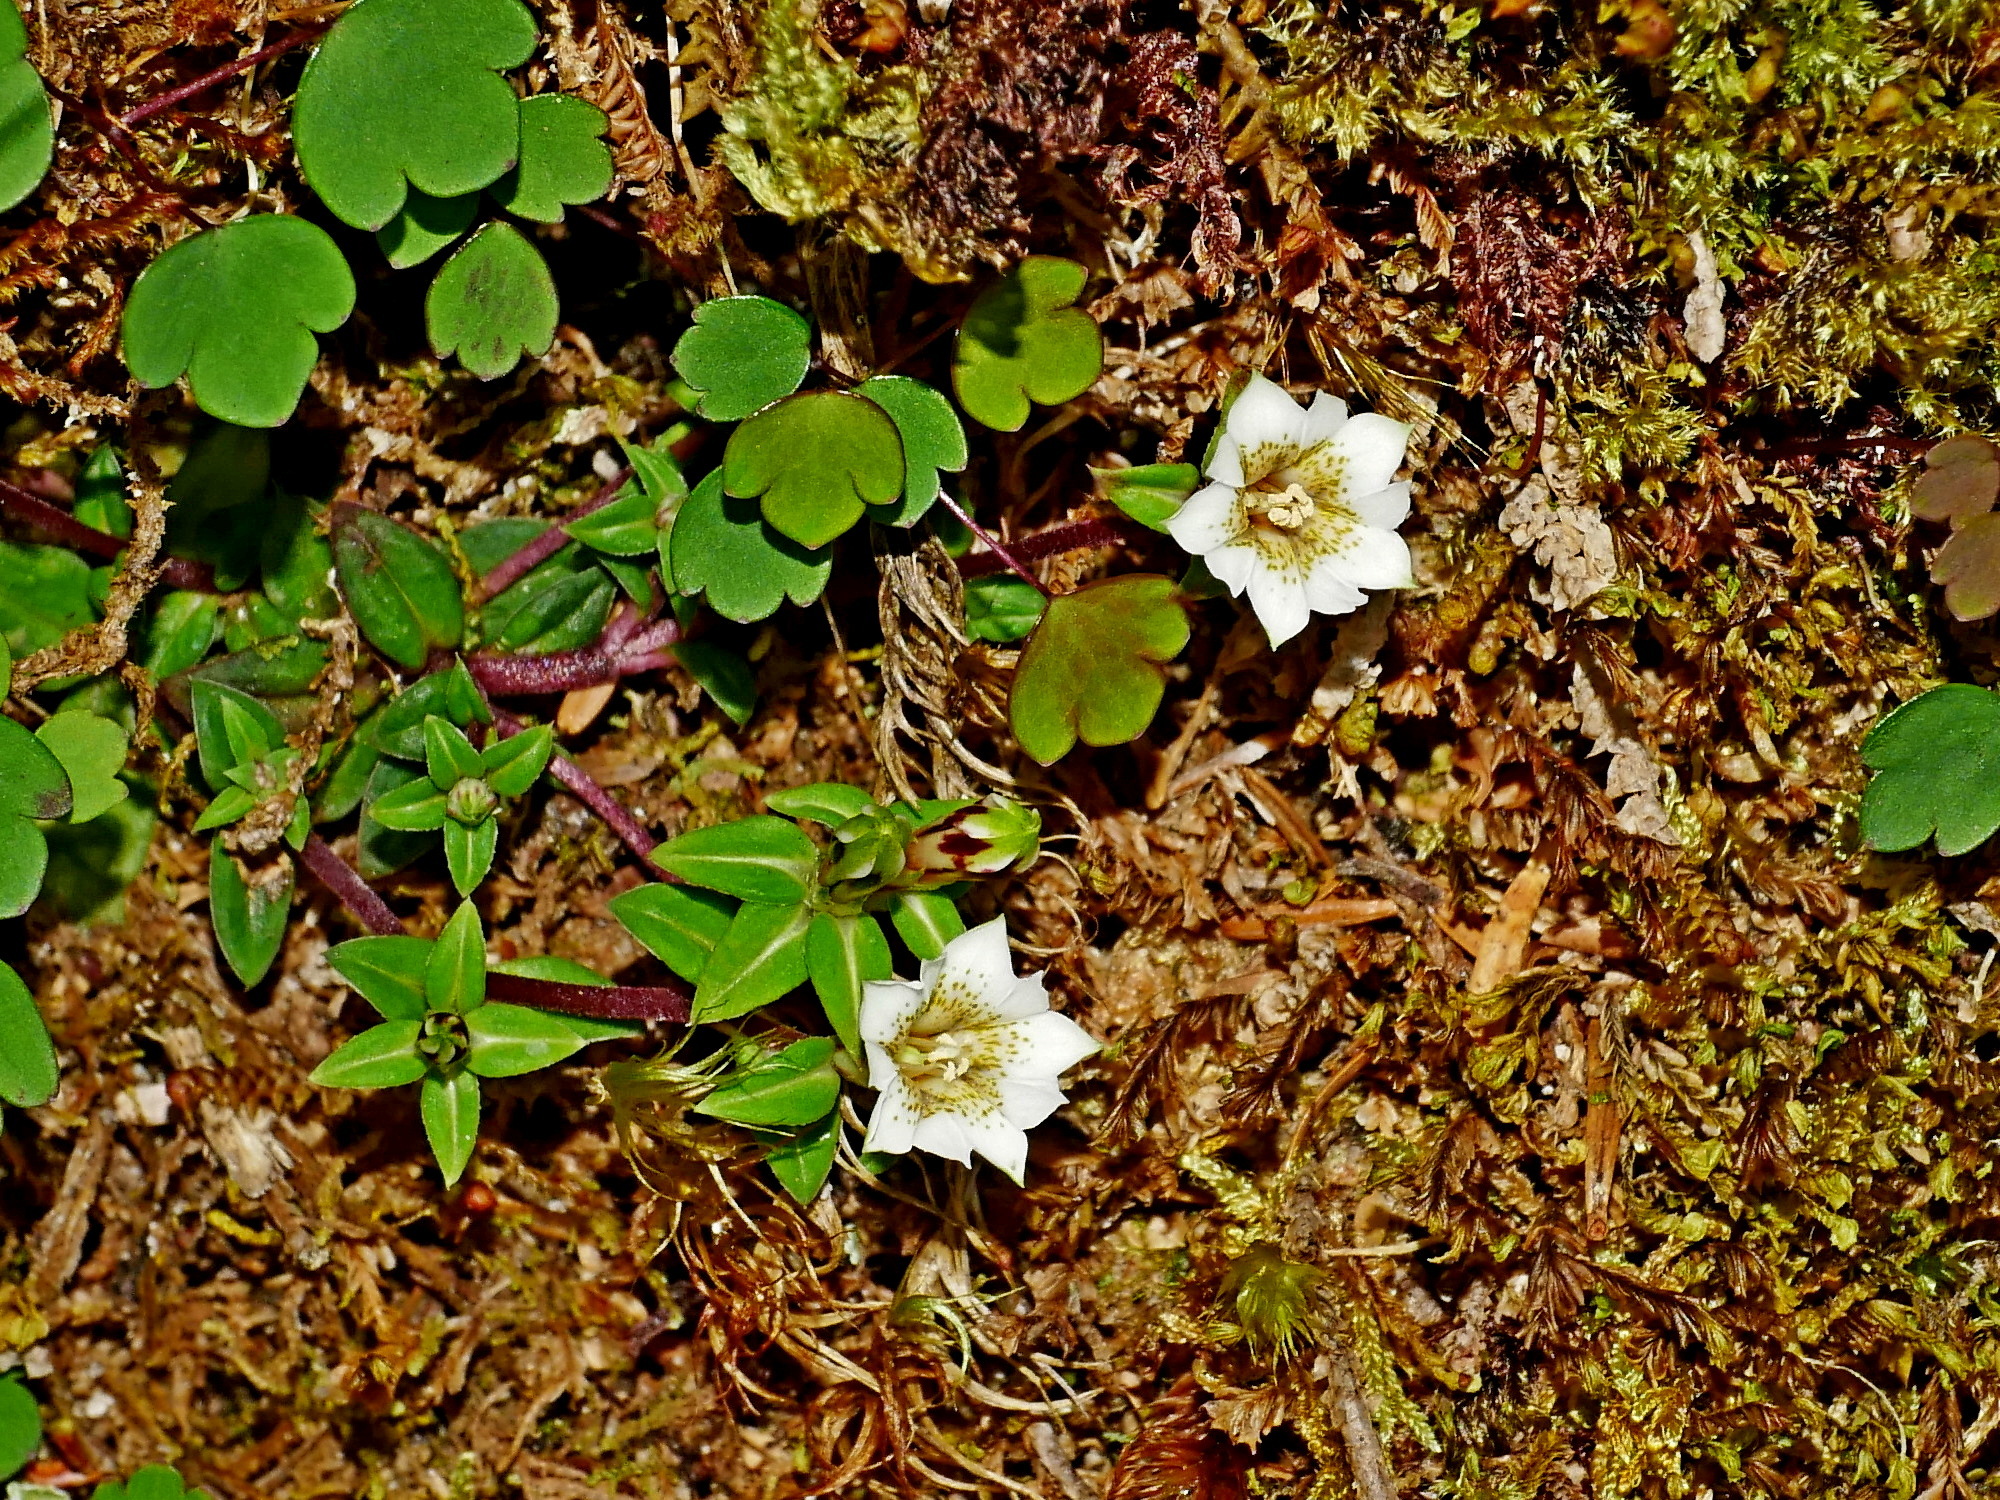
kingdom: Plantae
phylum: Tracheophyta
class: Magnoliopsida
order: Gentianales
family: Gentianaceae
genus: Gentiana
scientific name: Gentiana flavomaculata
